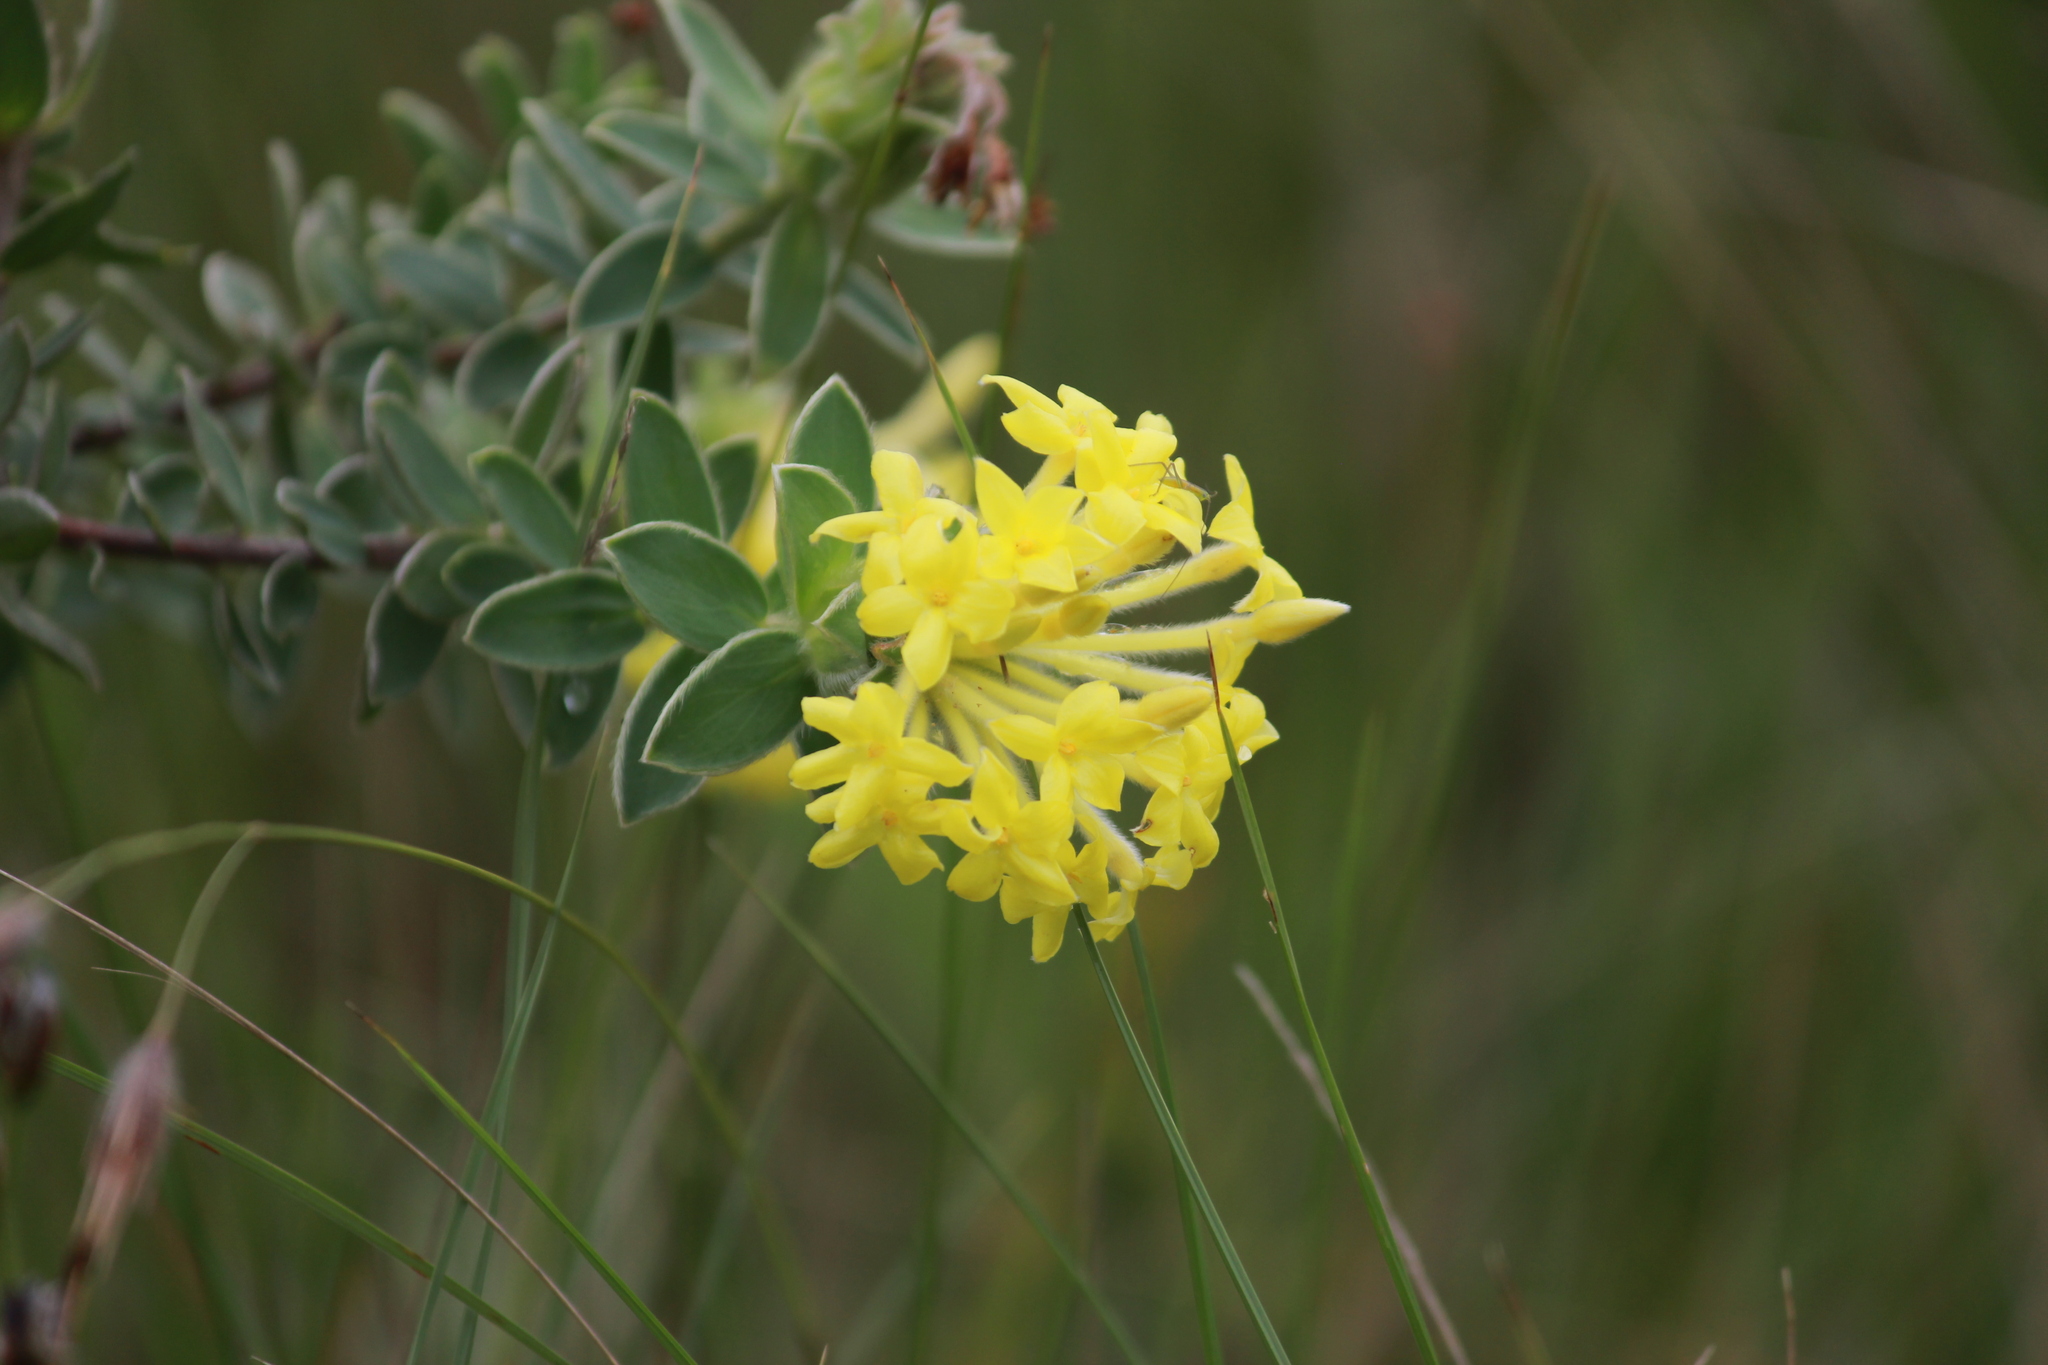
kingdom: Plantae
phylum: Tracheophyta
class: Magnoliopsida
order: Malvales
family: Thymelaeaceae
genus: Gnidia
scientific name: Gnidia anthylloides
